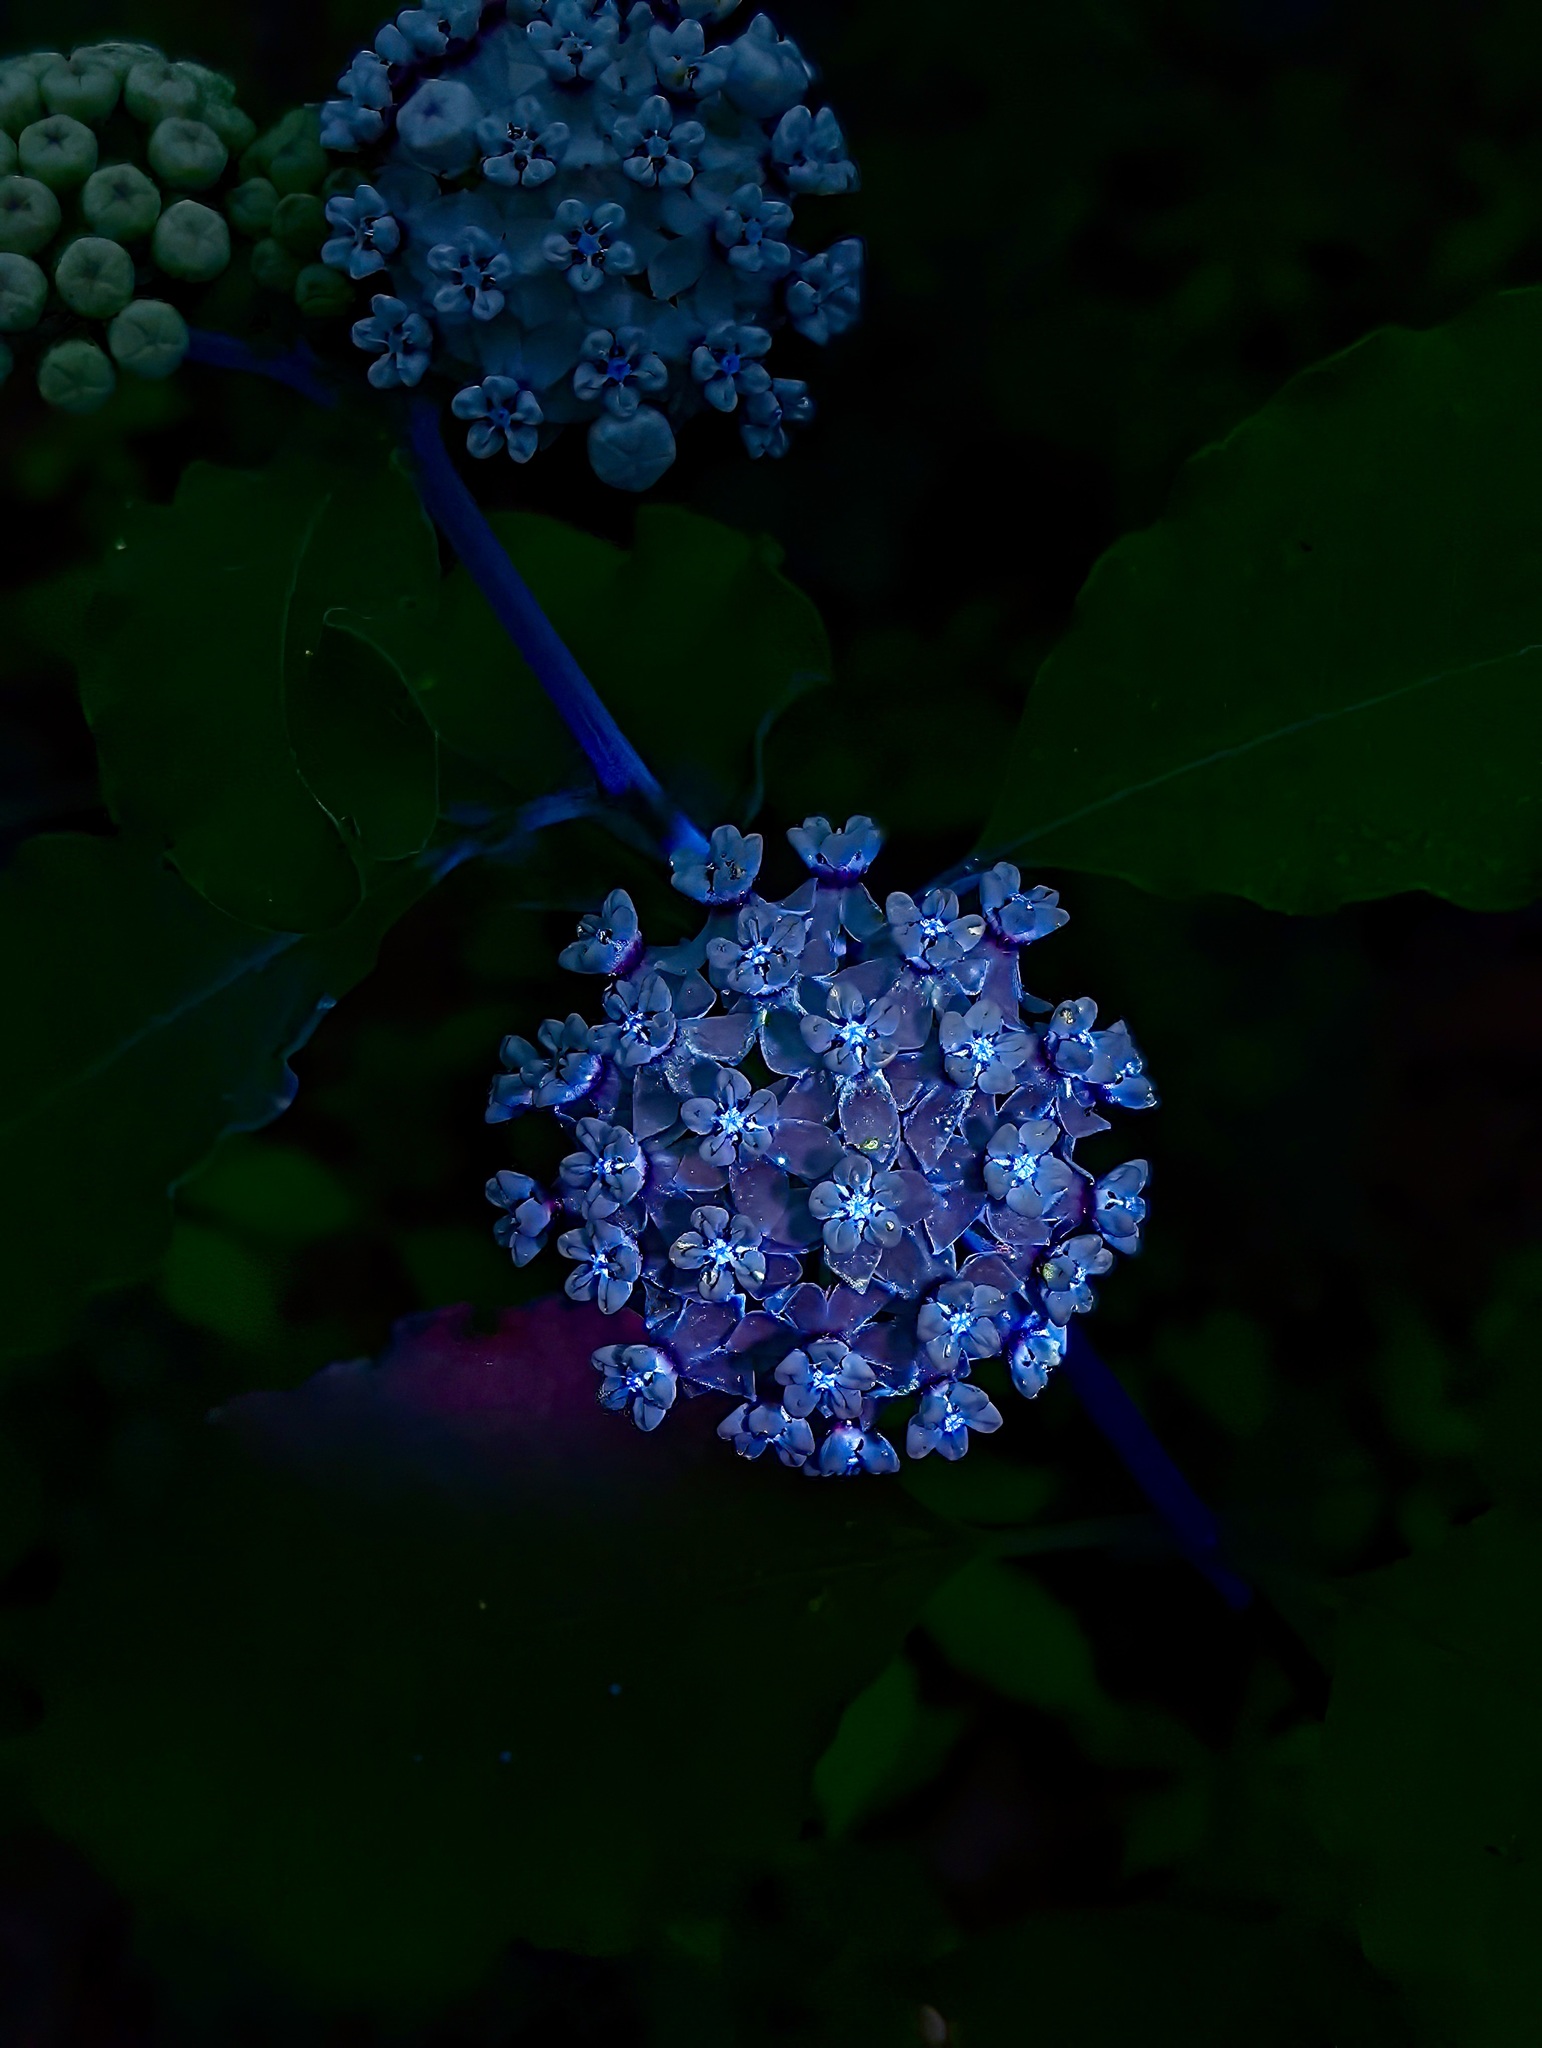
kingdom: Plantae
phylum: Tracheophyta
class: Magnoliopsida
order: Gentianales
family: Apocynaceae
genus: Asclepias
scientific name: Asclepias variegata
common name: Variegated milkweed
